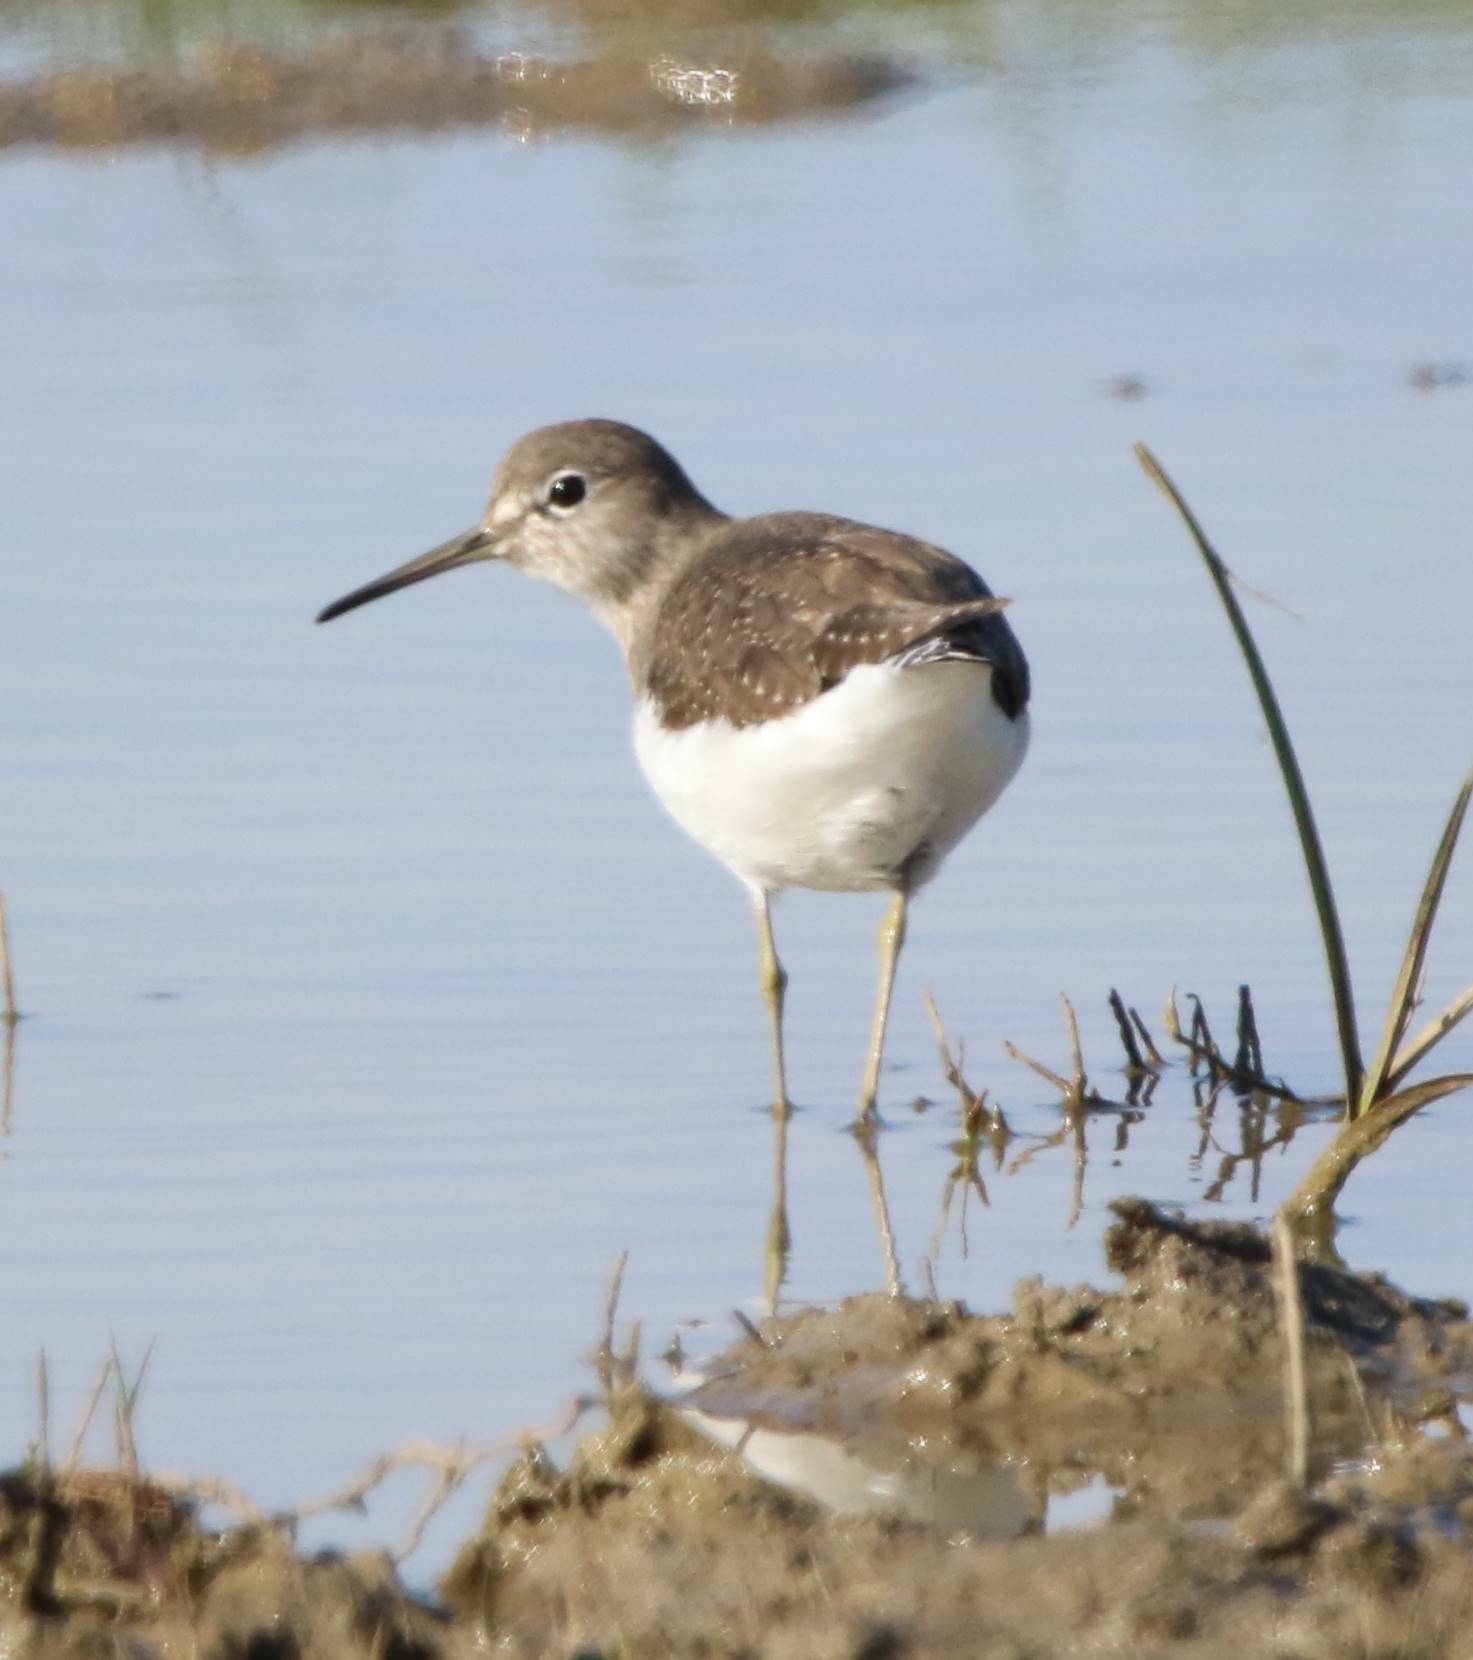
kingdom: Animalia
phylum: Chordata
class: Aves
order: Charadriiformes
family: Scolopacidae
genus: Tringa
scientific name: Tringa ochropus
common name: Green sandpiper
